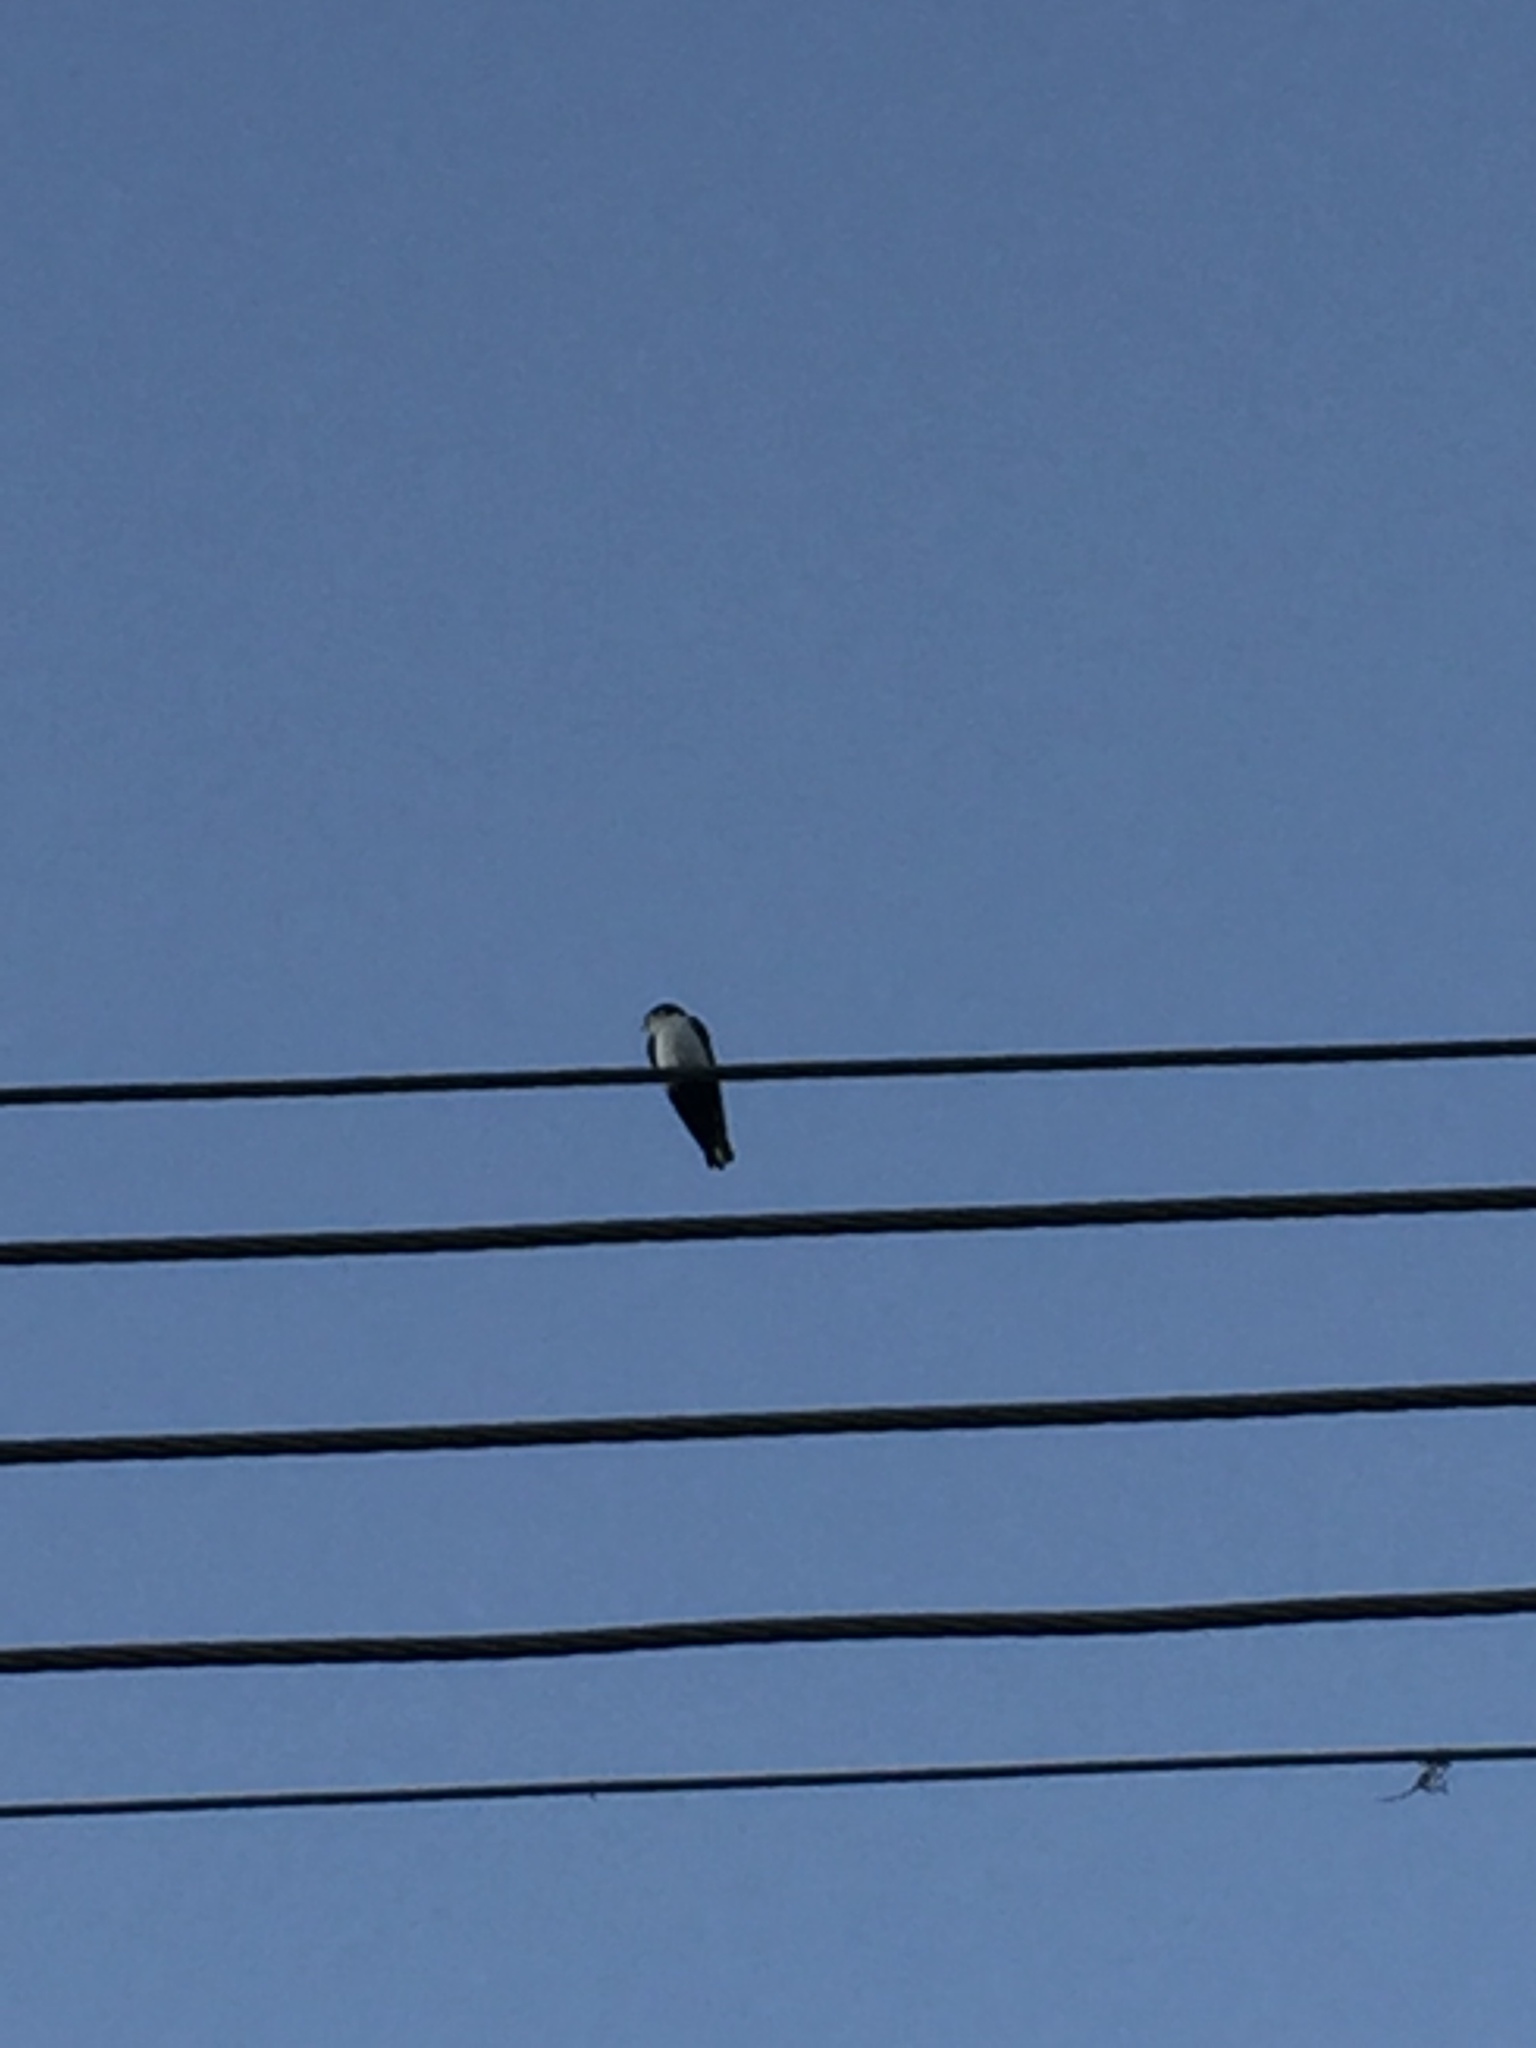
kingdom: Animalia
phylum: Chordata
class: Aves
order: Passeriformes
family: Hirundinidae
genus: Notiochelidon
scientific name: Notiochelidon cyanoleuca
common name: Blue-and-white swallow
